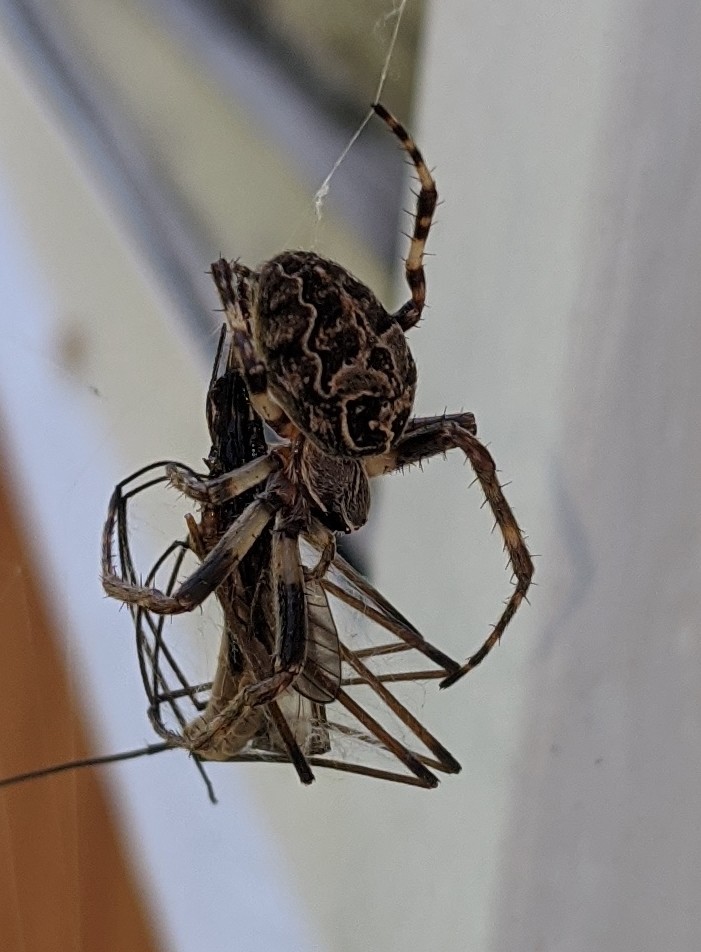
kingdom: Animalia
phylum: Arthropoda
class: Arachnida
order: Araneae
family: Araneidae
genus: Larinioides
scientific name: Larinioides sclopetarius
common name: Bridge orbweaver
